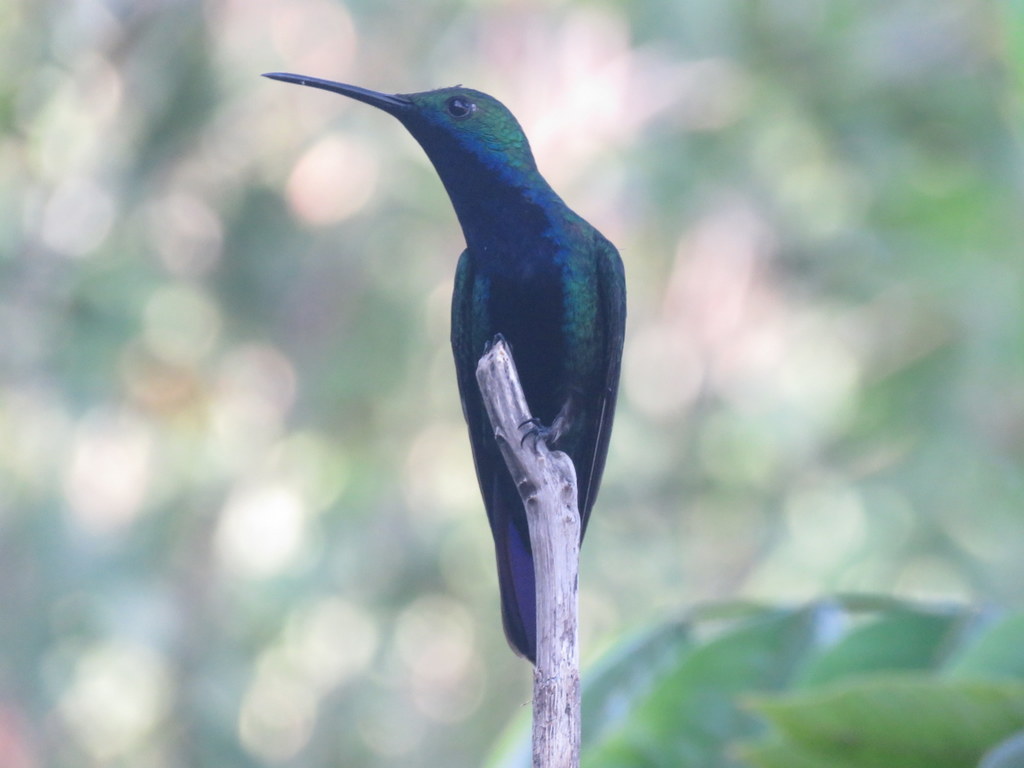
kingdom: Animalia
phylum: Chordata
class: Aves
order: Apodiformes
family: Trochilidae
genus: Anthracothorax
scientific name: Anthracothorax nigricollis
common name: Black-throated mango
